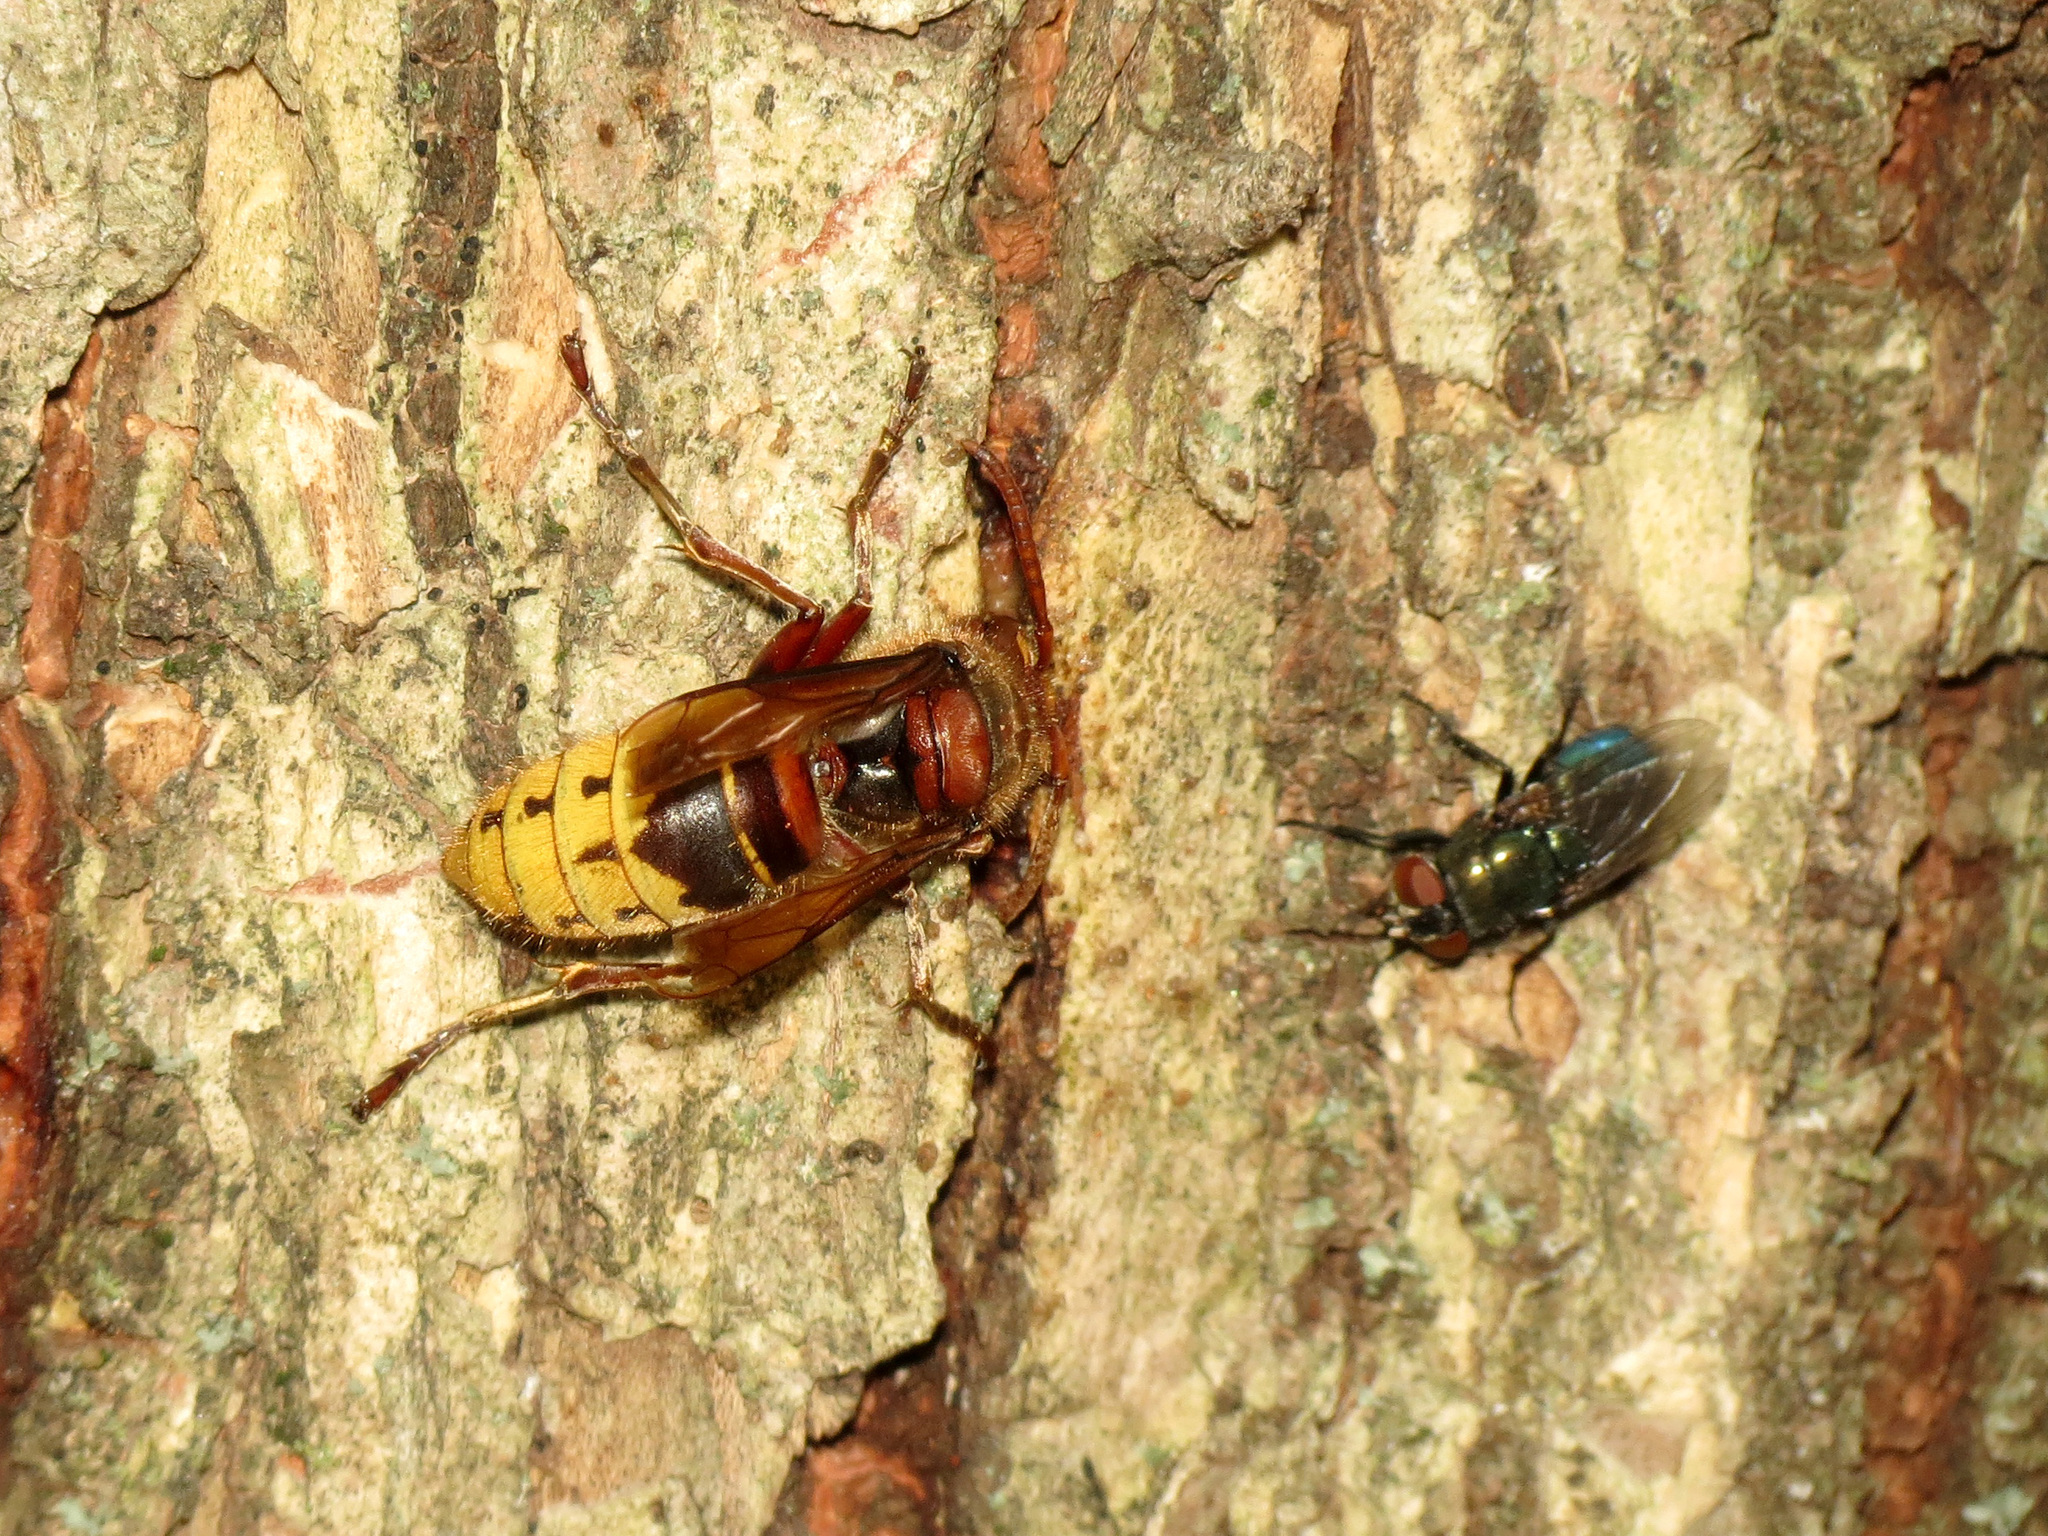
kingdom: Animalia
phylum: Arthropoda
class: Insecta
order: Hymenoptera
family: Vespidae
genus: Vespa
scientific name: Vespa crabro
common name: Hornet
